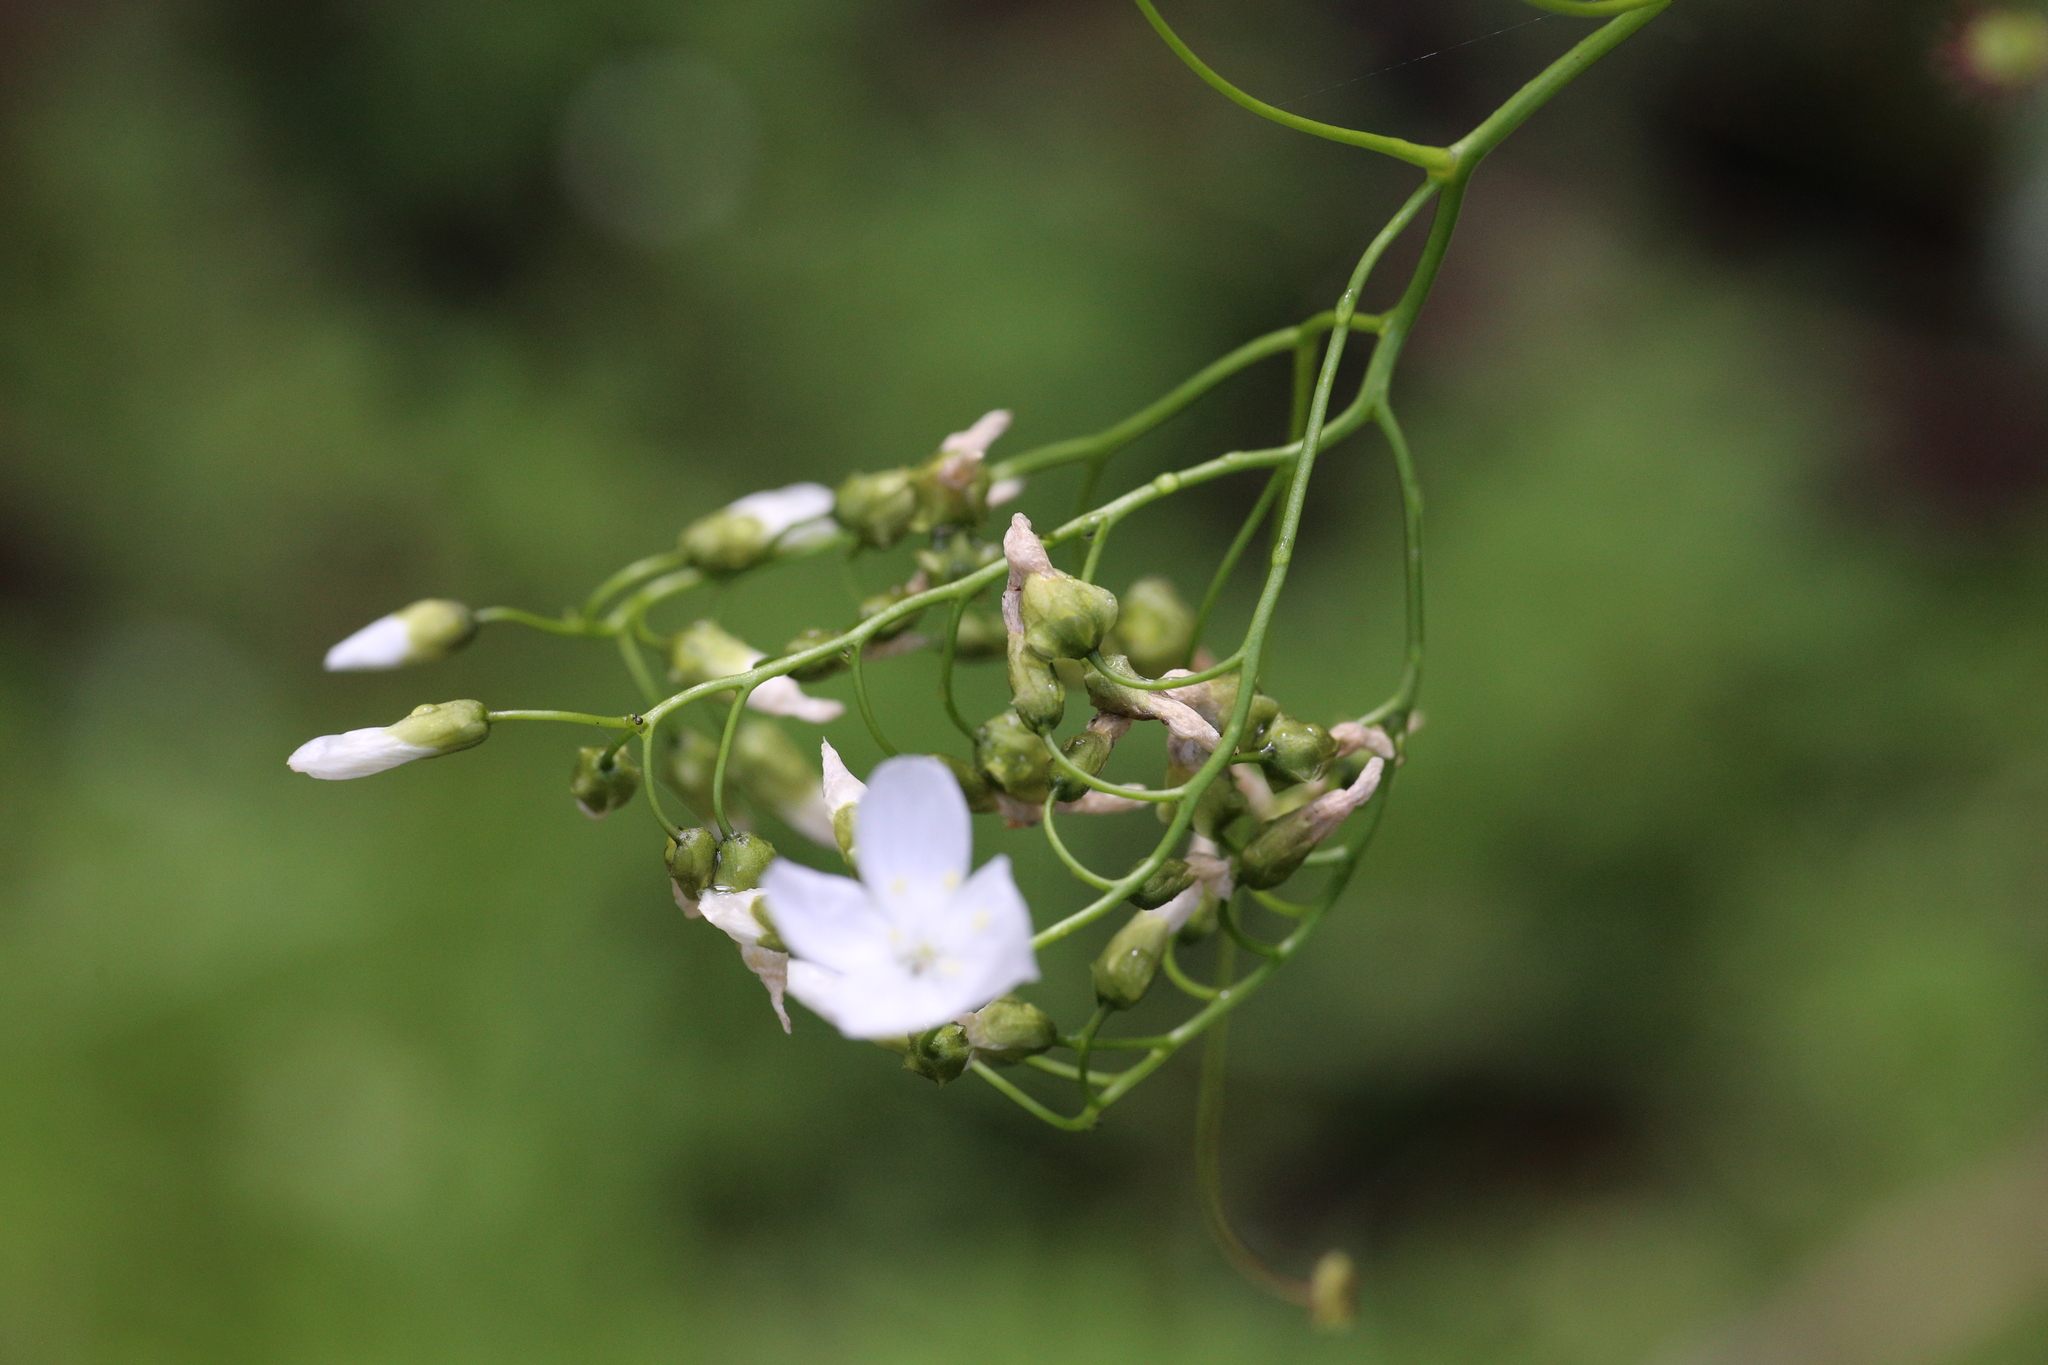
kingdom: Plantae
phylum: Tracheophyta
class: Magnoliopsida
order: Caryophyllales
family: Droseraceae
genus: Drosera
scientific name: Drosera pallida
